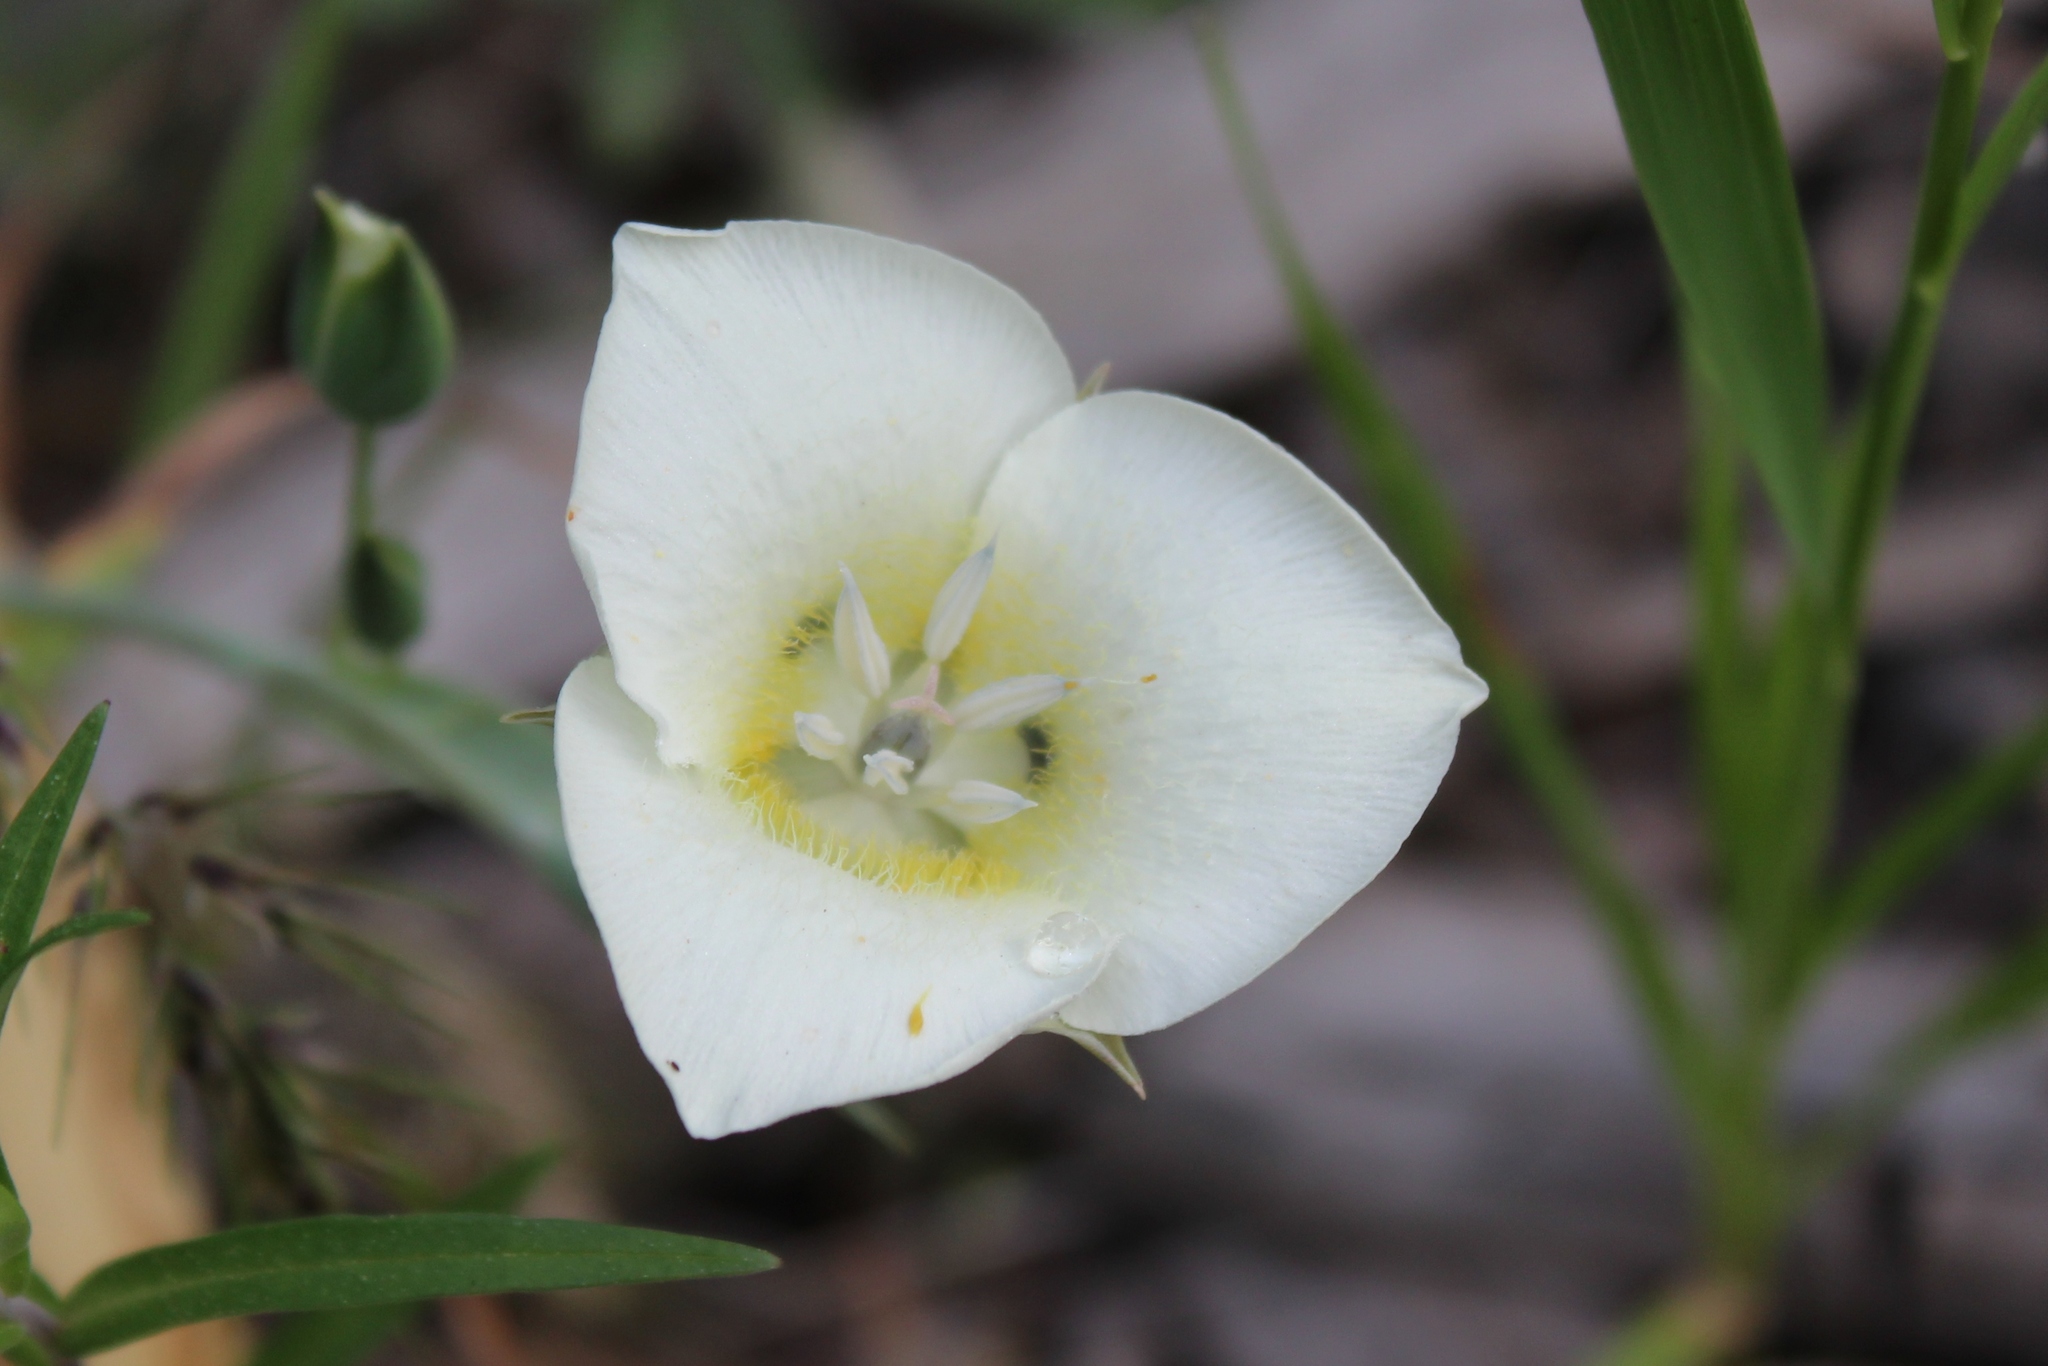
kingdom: Plantae
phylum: Tracheophyta
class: Liliopsida
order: Liliales
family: Liliaceae
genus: Calochortus
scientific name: Calochortus apiculatus
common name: Baker's mariposa lily
